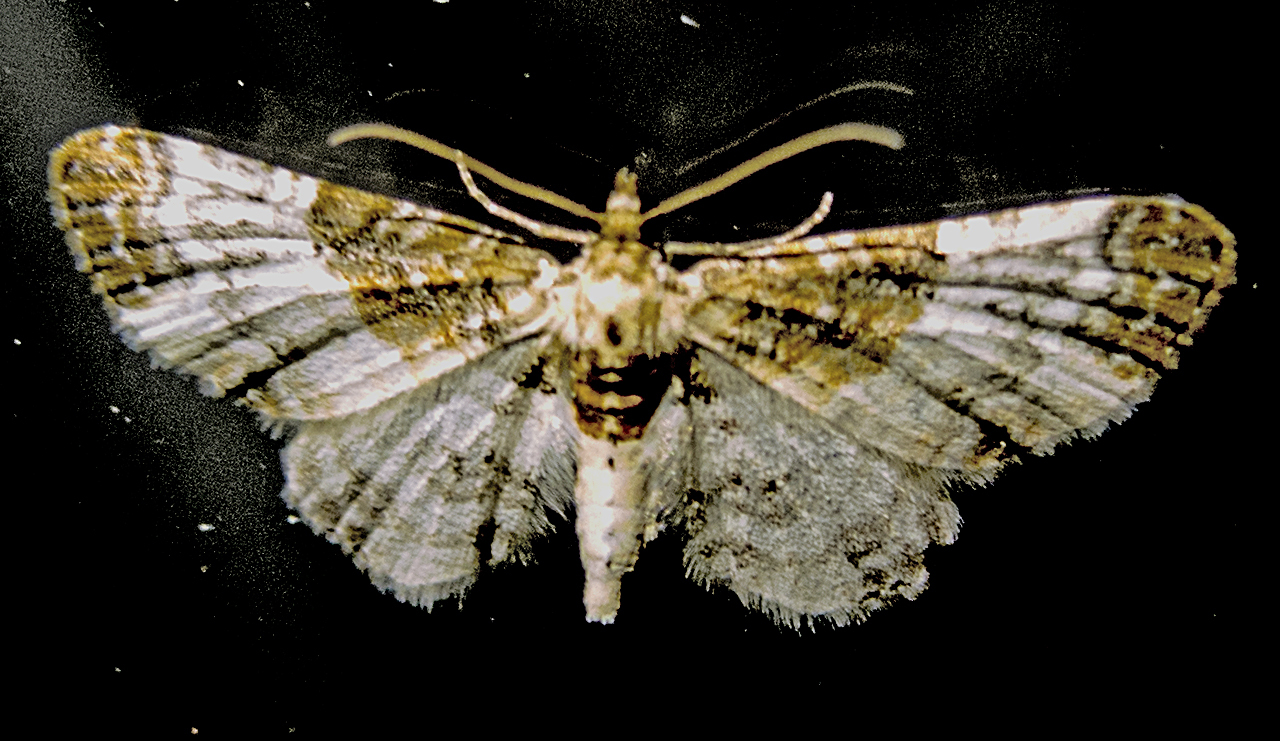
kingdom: Animalia
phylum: Arthropoda
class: Insecta
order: Lepidoptera
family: Geometridae
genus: Eupithecia
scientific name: Eupithecia breviculata
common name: Rusty-shouldered pug
